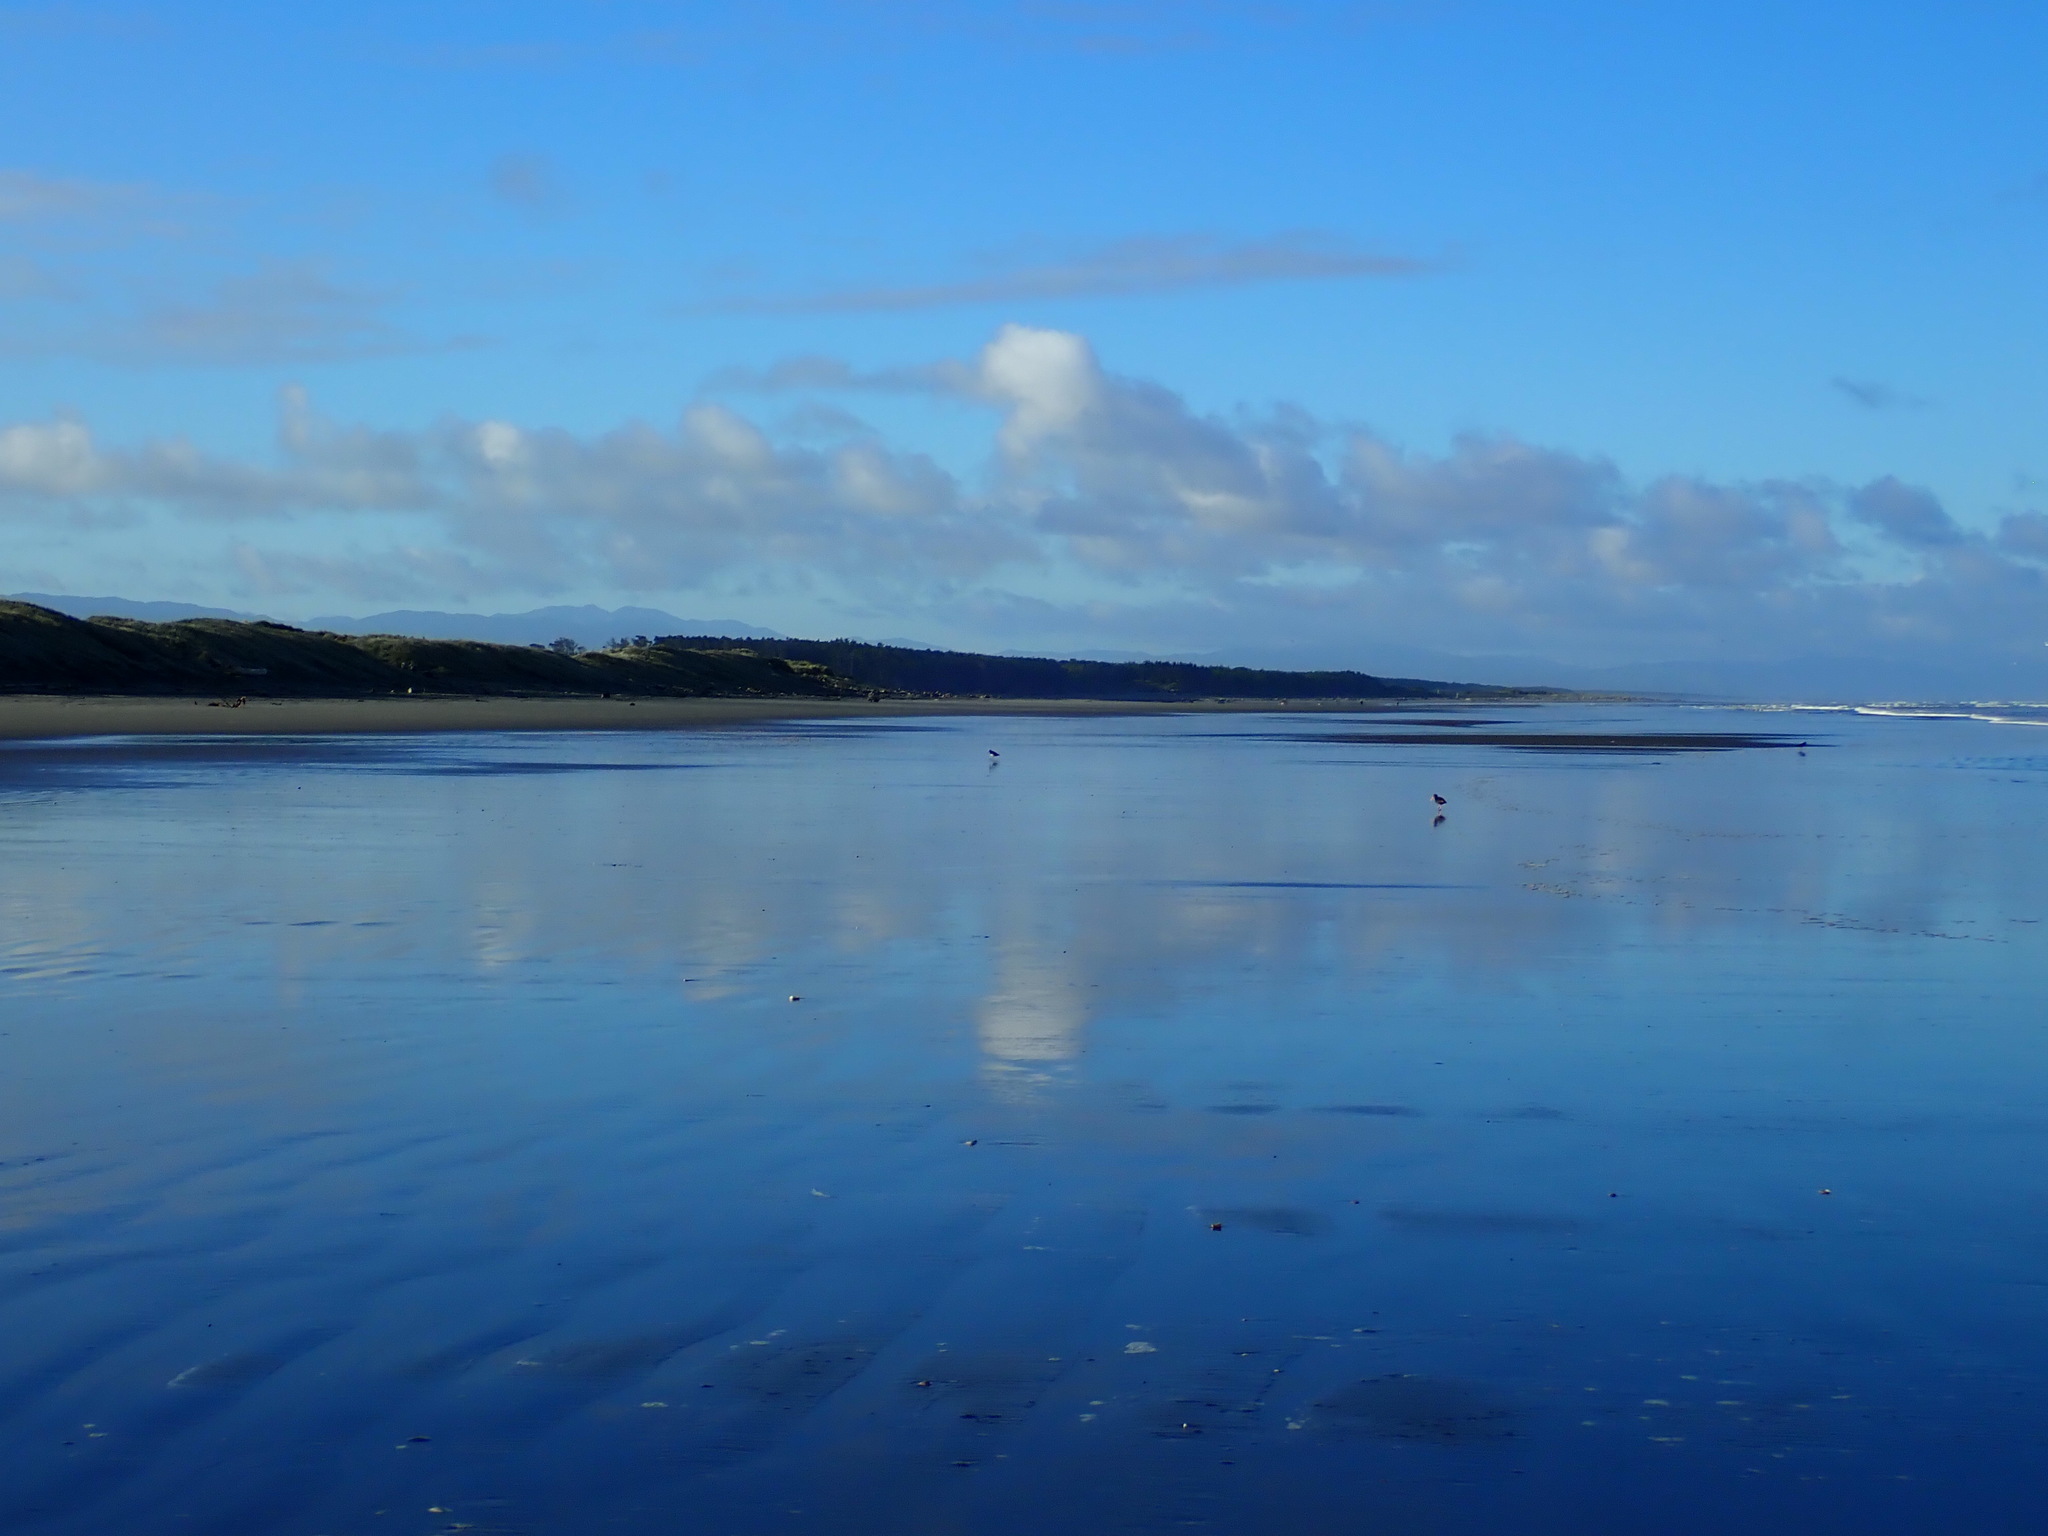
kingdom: Animalia
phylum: Chordata
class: Aves
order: Charadriiformes
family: Haematopodidae
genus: Haematopus
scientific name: Haematopus unicolor
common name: Variable oystercatcher
